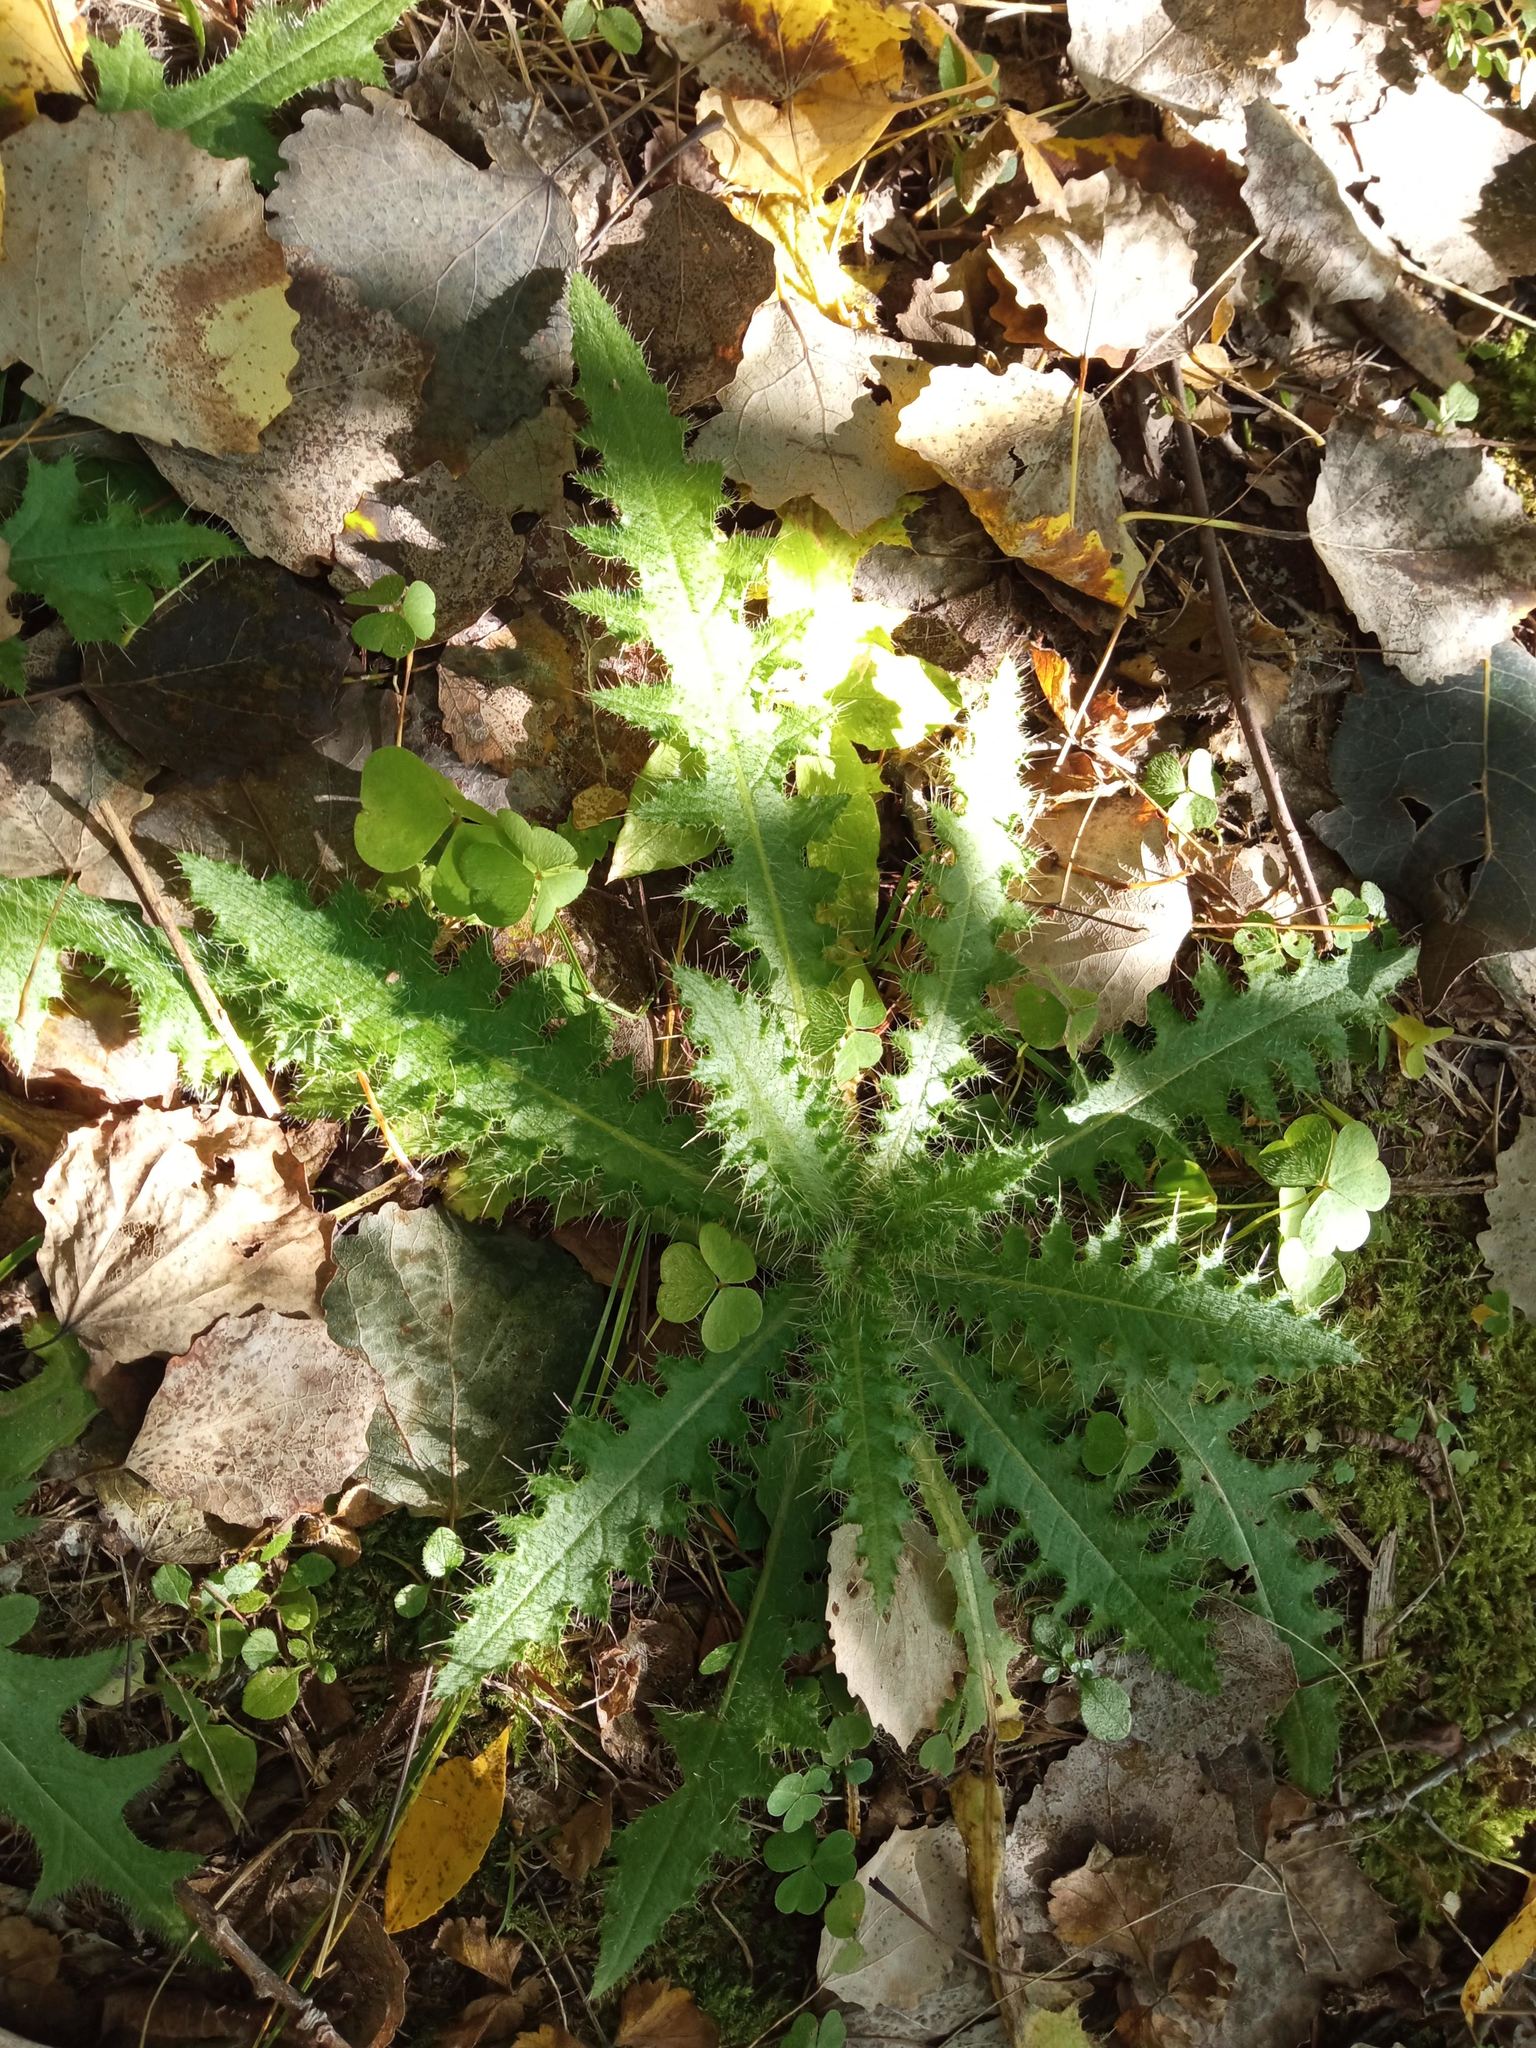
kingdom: Plantae
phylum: Tracheophyta
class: Magnoliopsida
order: Asterales
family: Asteraceae
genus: Cirsium
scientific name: Cirsium palustre
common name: Marsh thistle
